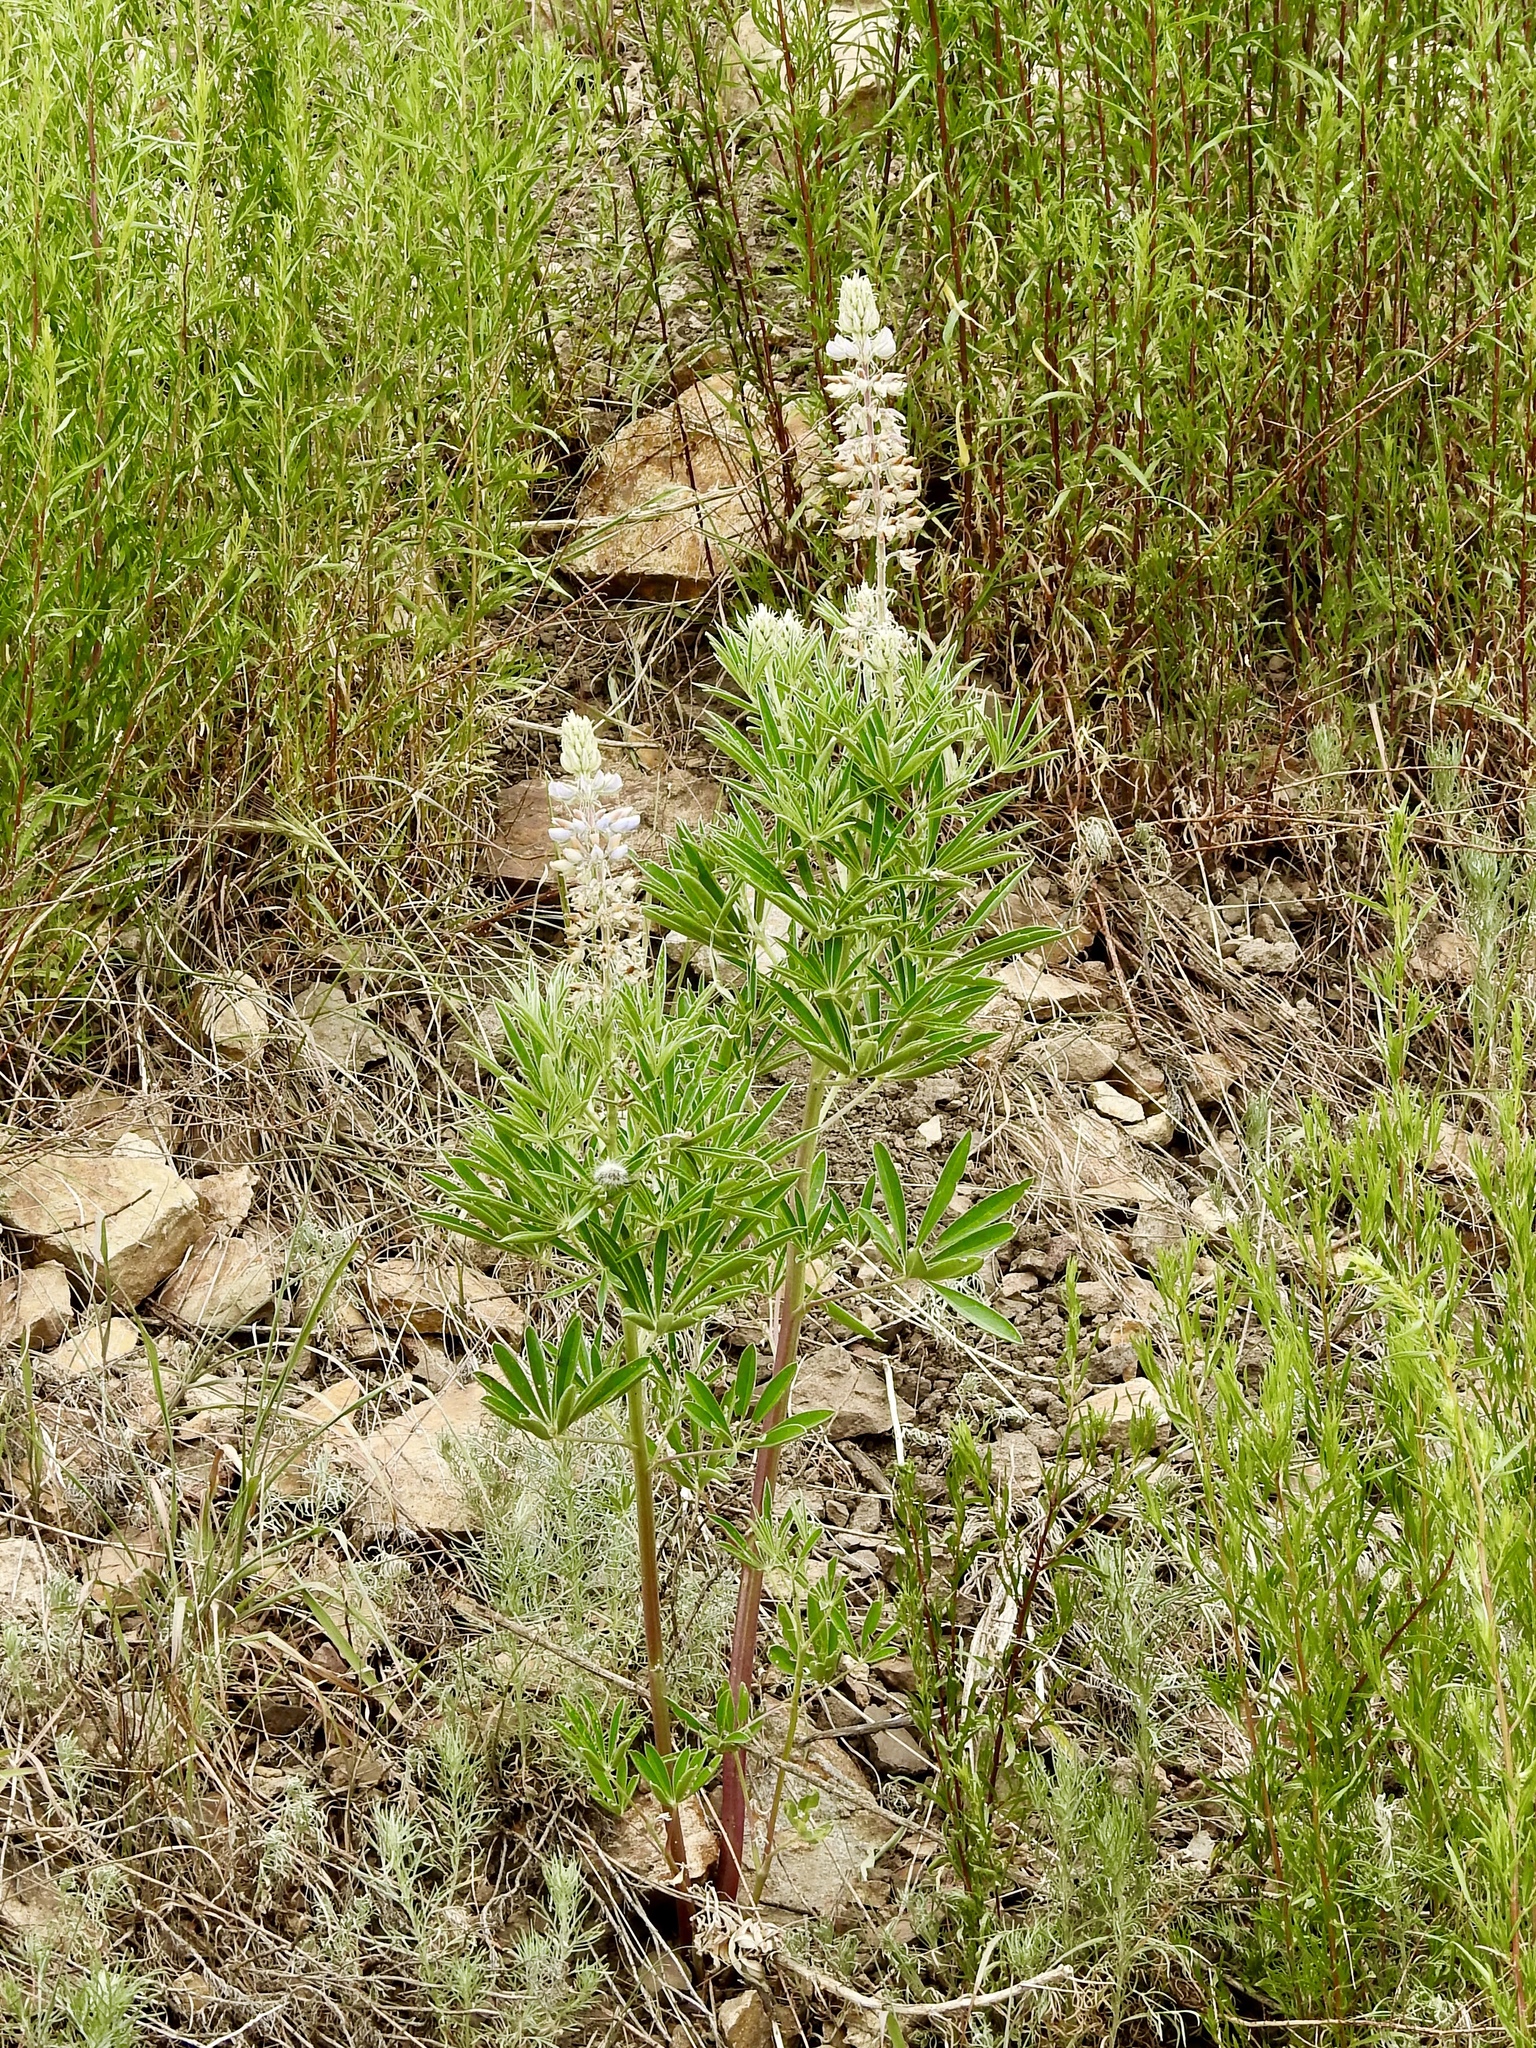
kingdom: Plantae
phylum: Tracheophyta
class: Magnoliopsida
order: Fabales
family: Fabaceae
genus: Lupinus
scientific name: Lupinus sierrae-blancae
